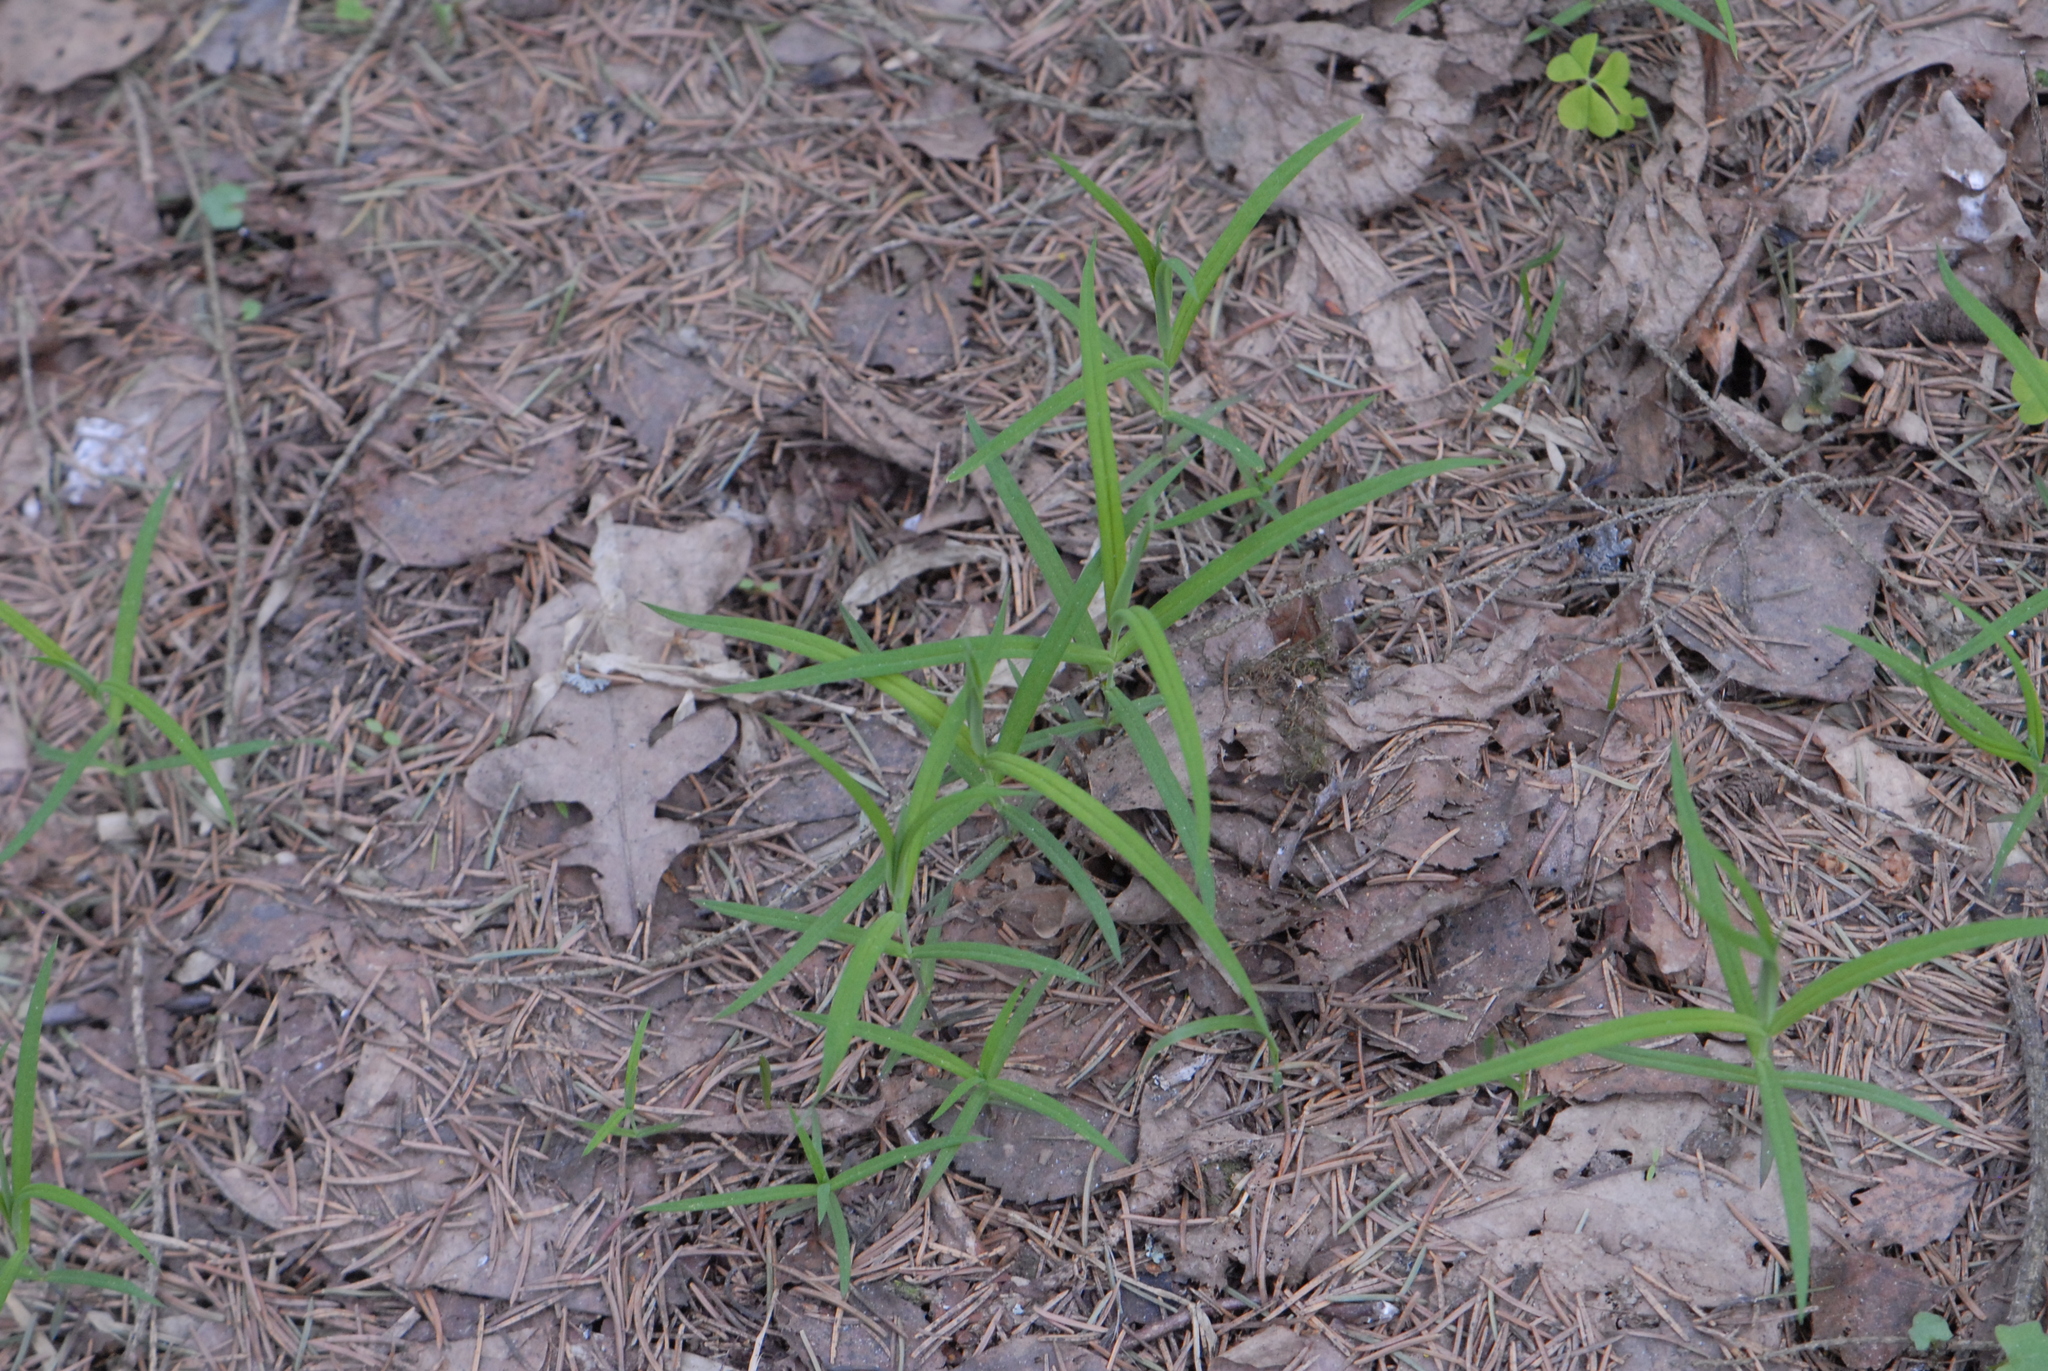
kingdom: Plantae
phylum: Tracheophyta
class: Magnoliopsida
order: Caryophyllales
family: Caryophyllaceae
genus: Rabelera
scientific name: Rabelera holostea
